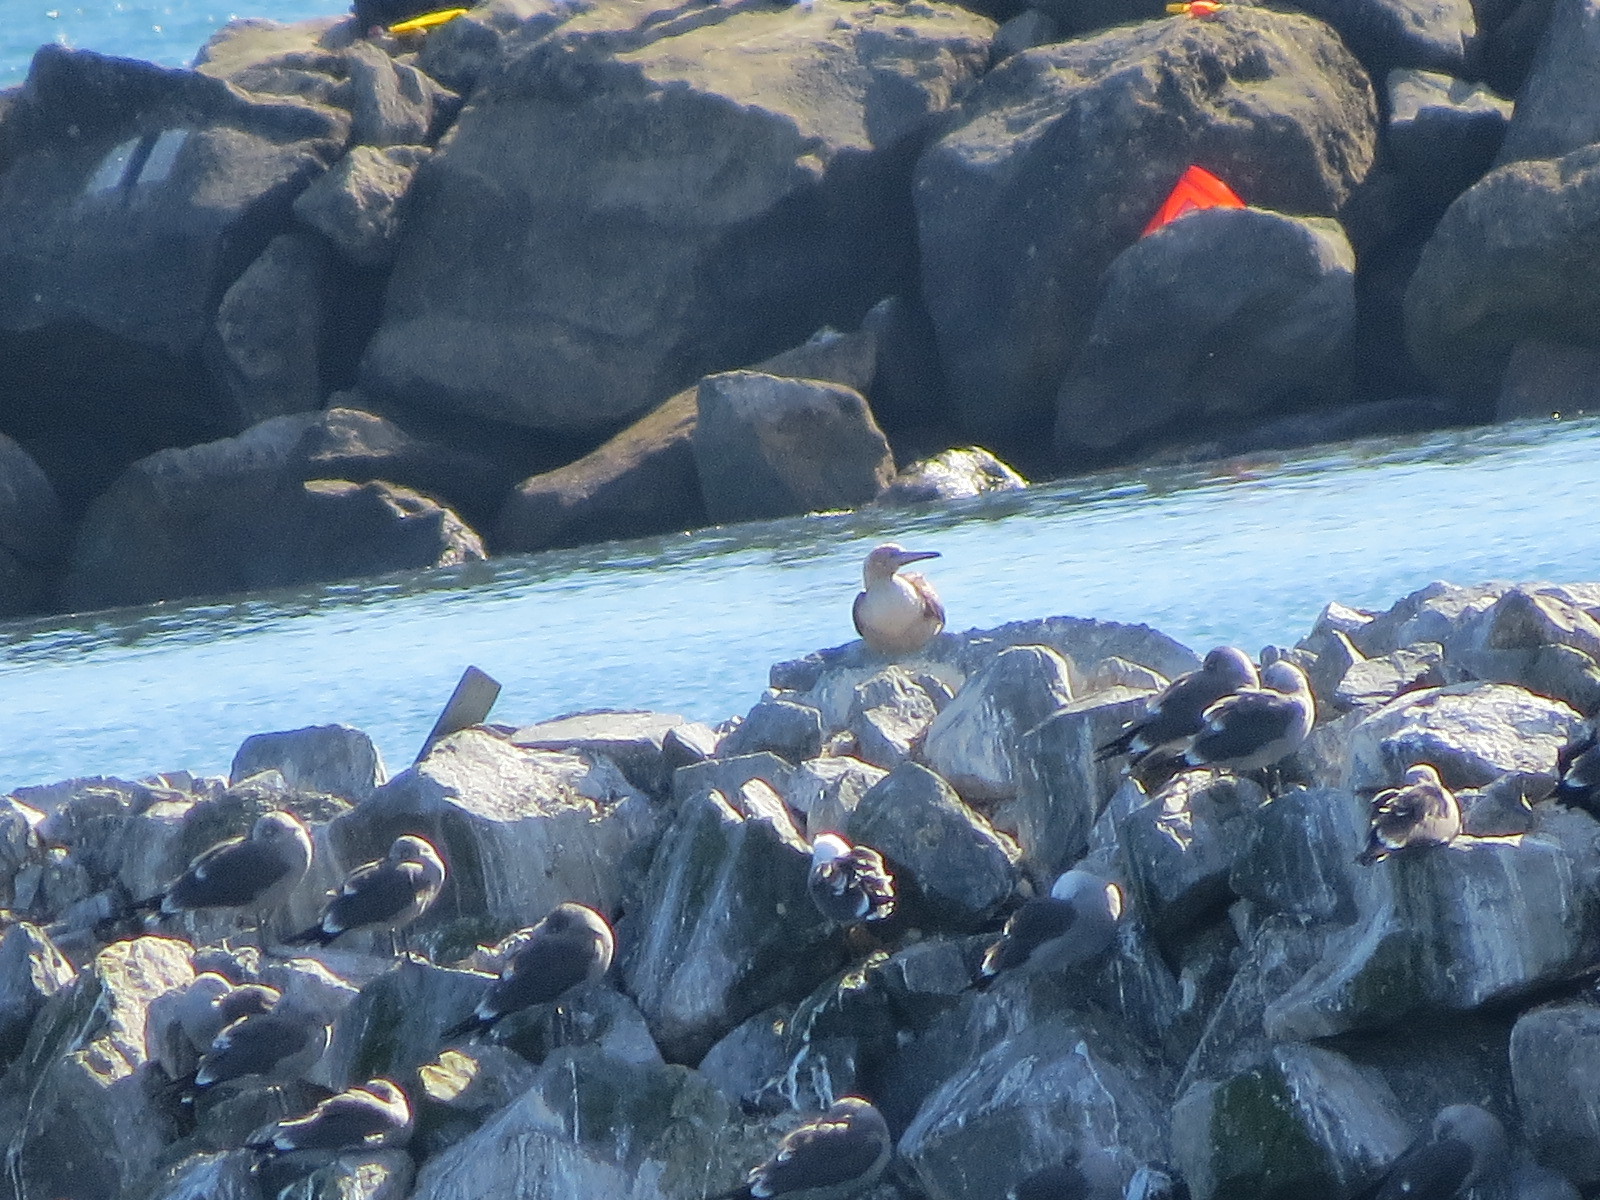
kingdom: Animalia
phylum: Chordata
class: Aves
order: Suliformes
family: Sulidae
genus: Sula
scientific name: Sula sula
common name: Red-footed booby
